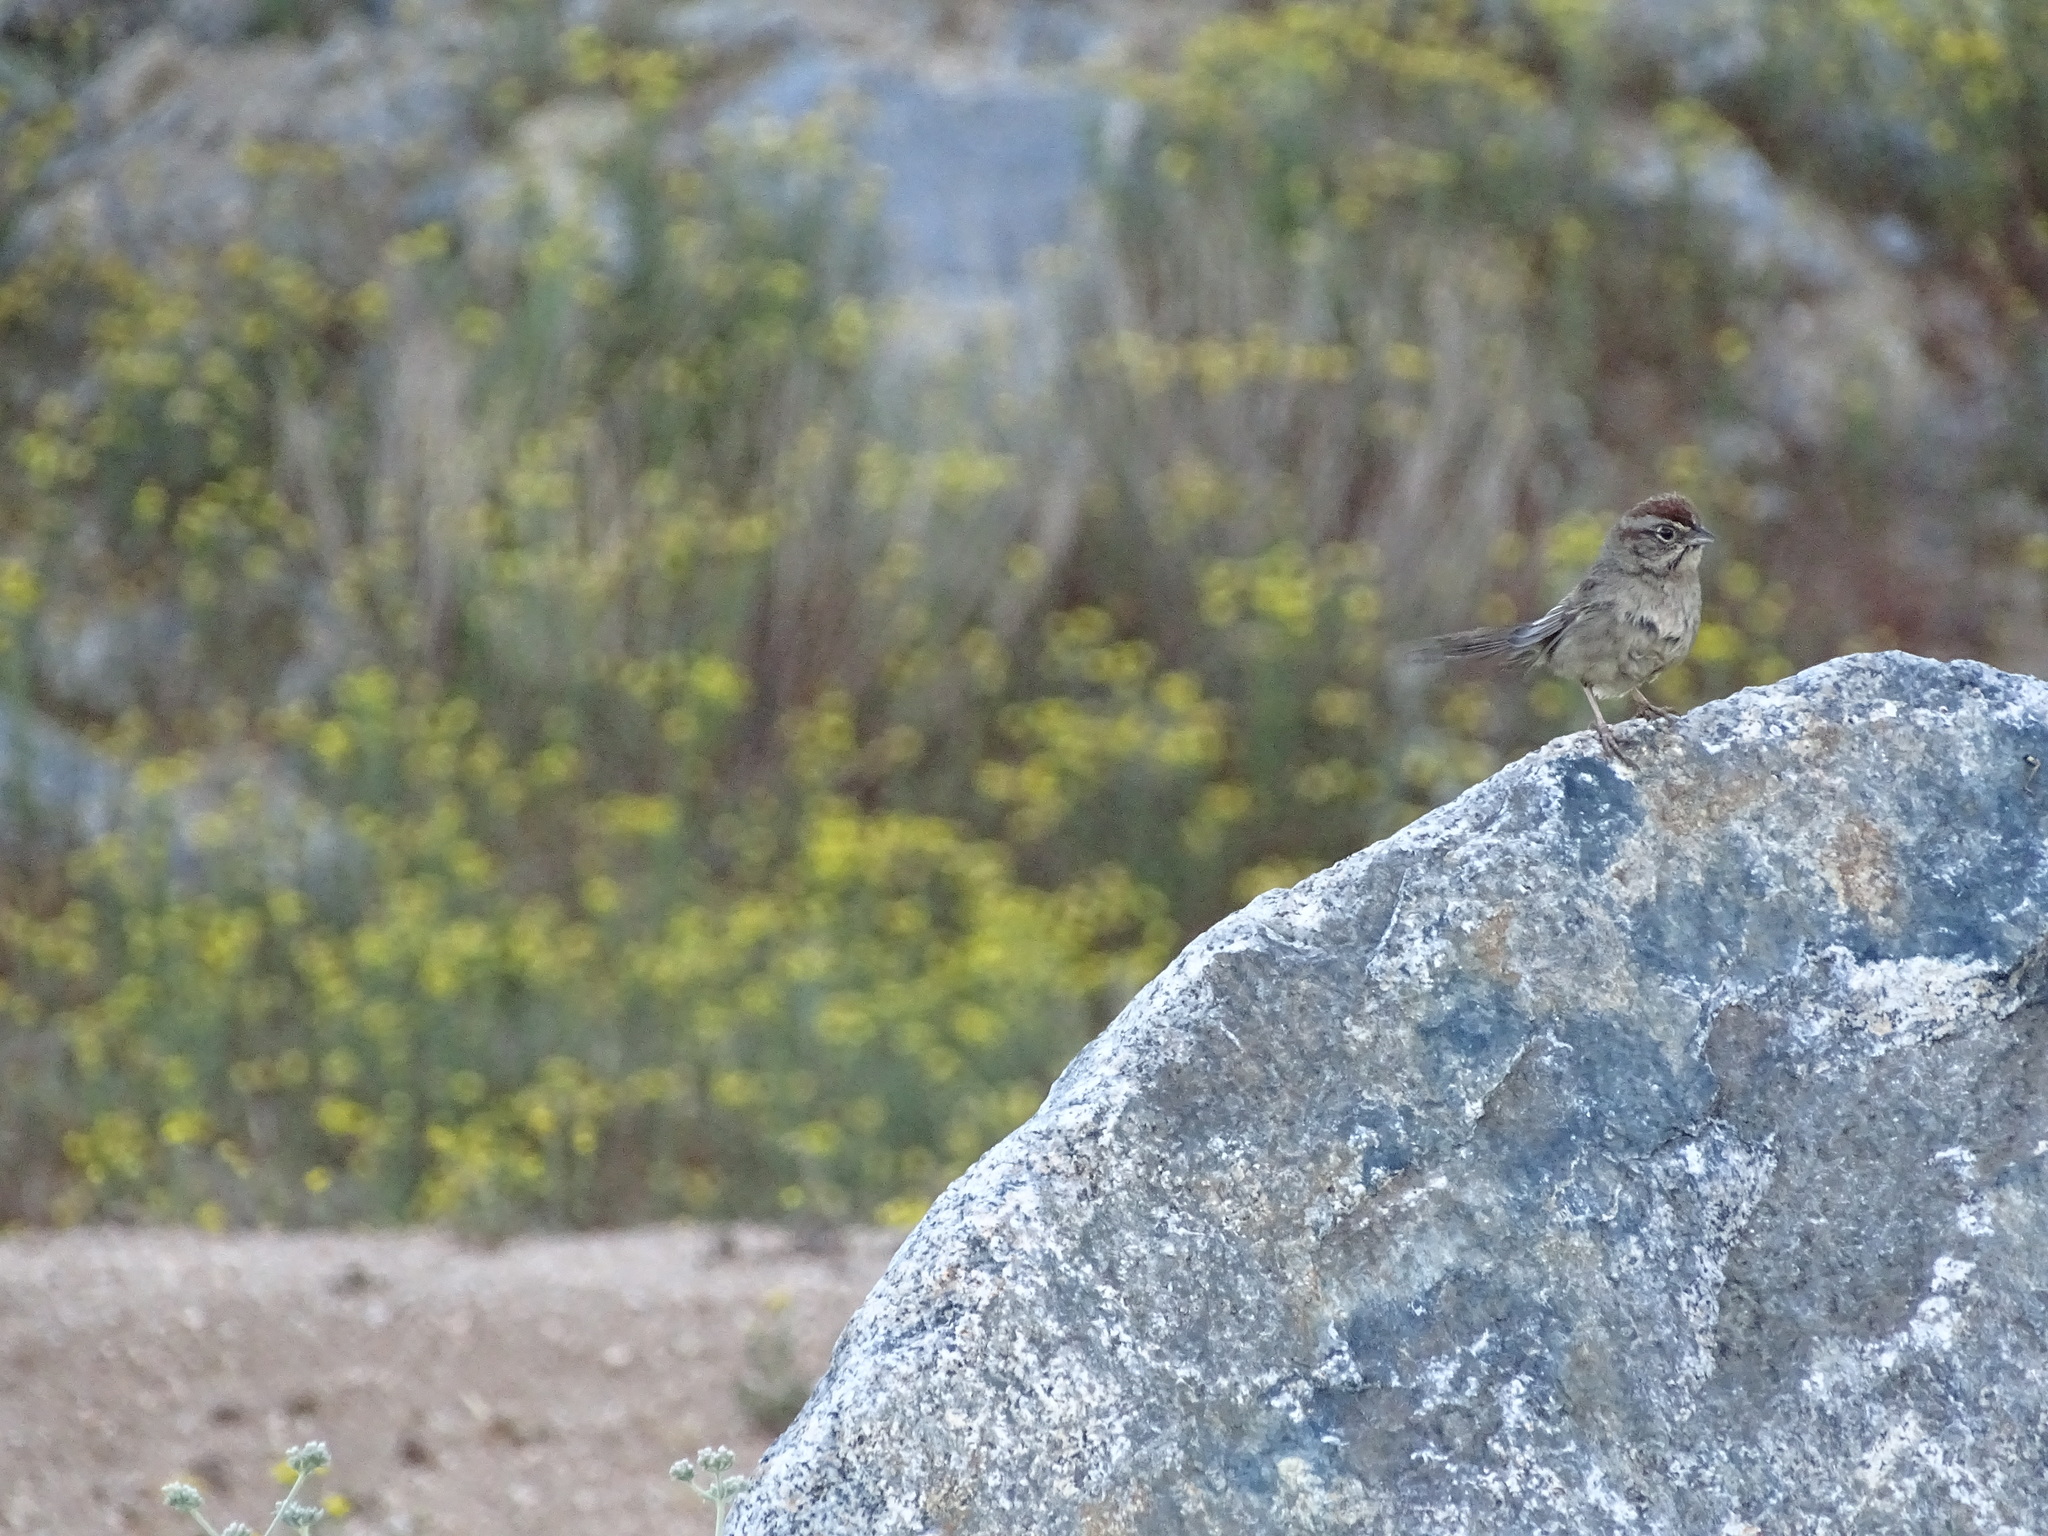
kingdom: Animalia
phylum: Chordata
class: Aves
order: Passeriformes
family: Passerellidae
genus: Aimophila
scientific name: Aimophila ruficeps
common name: Rufous-crowned sparrow
